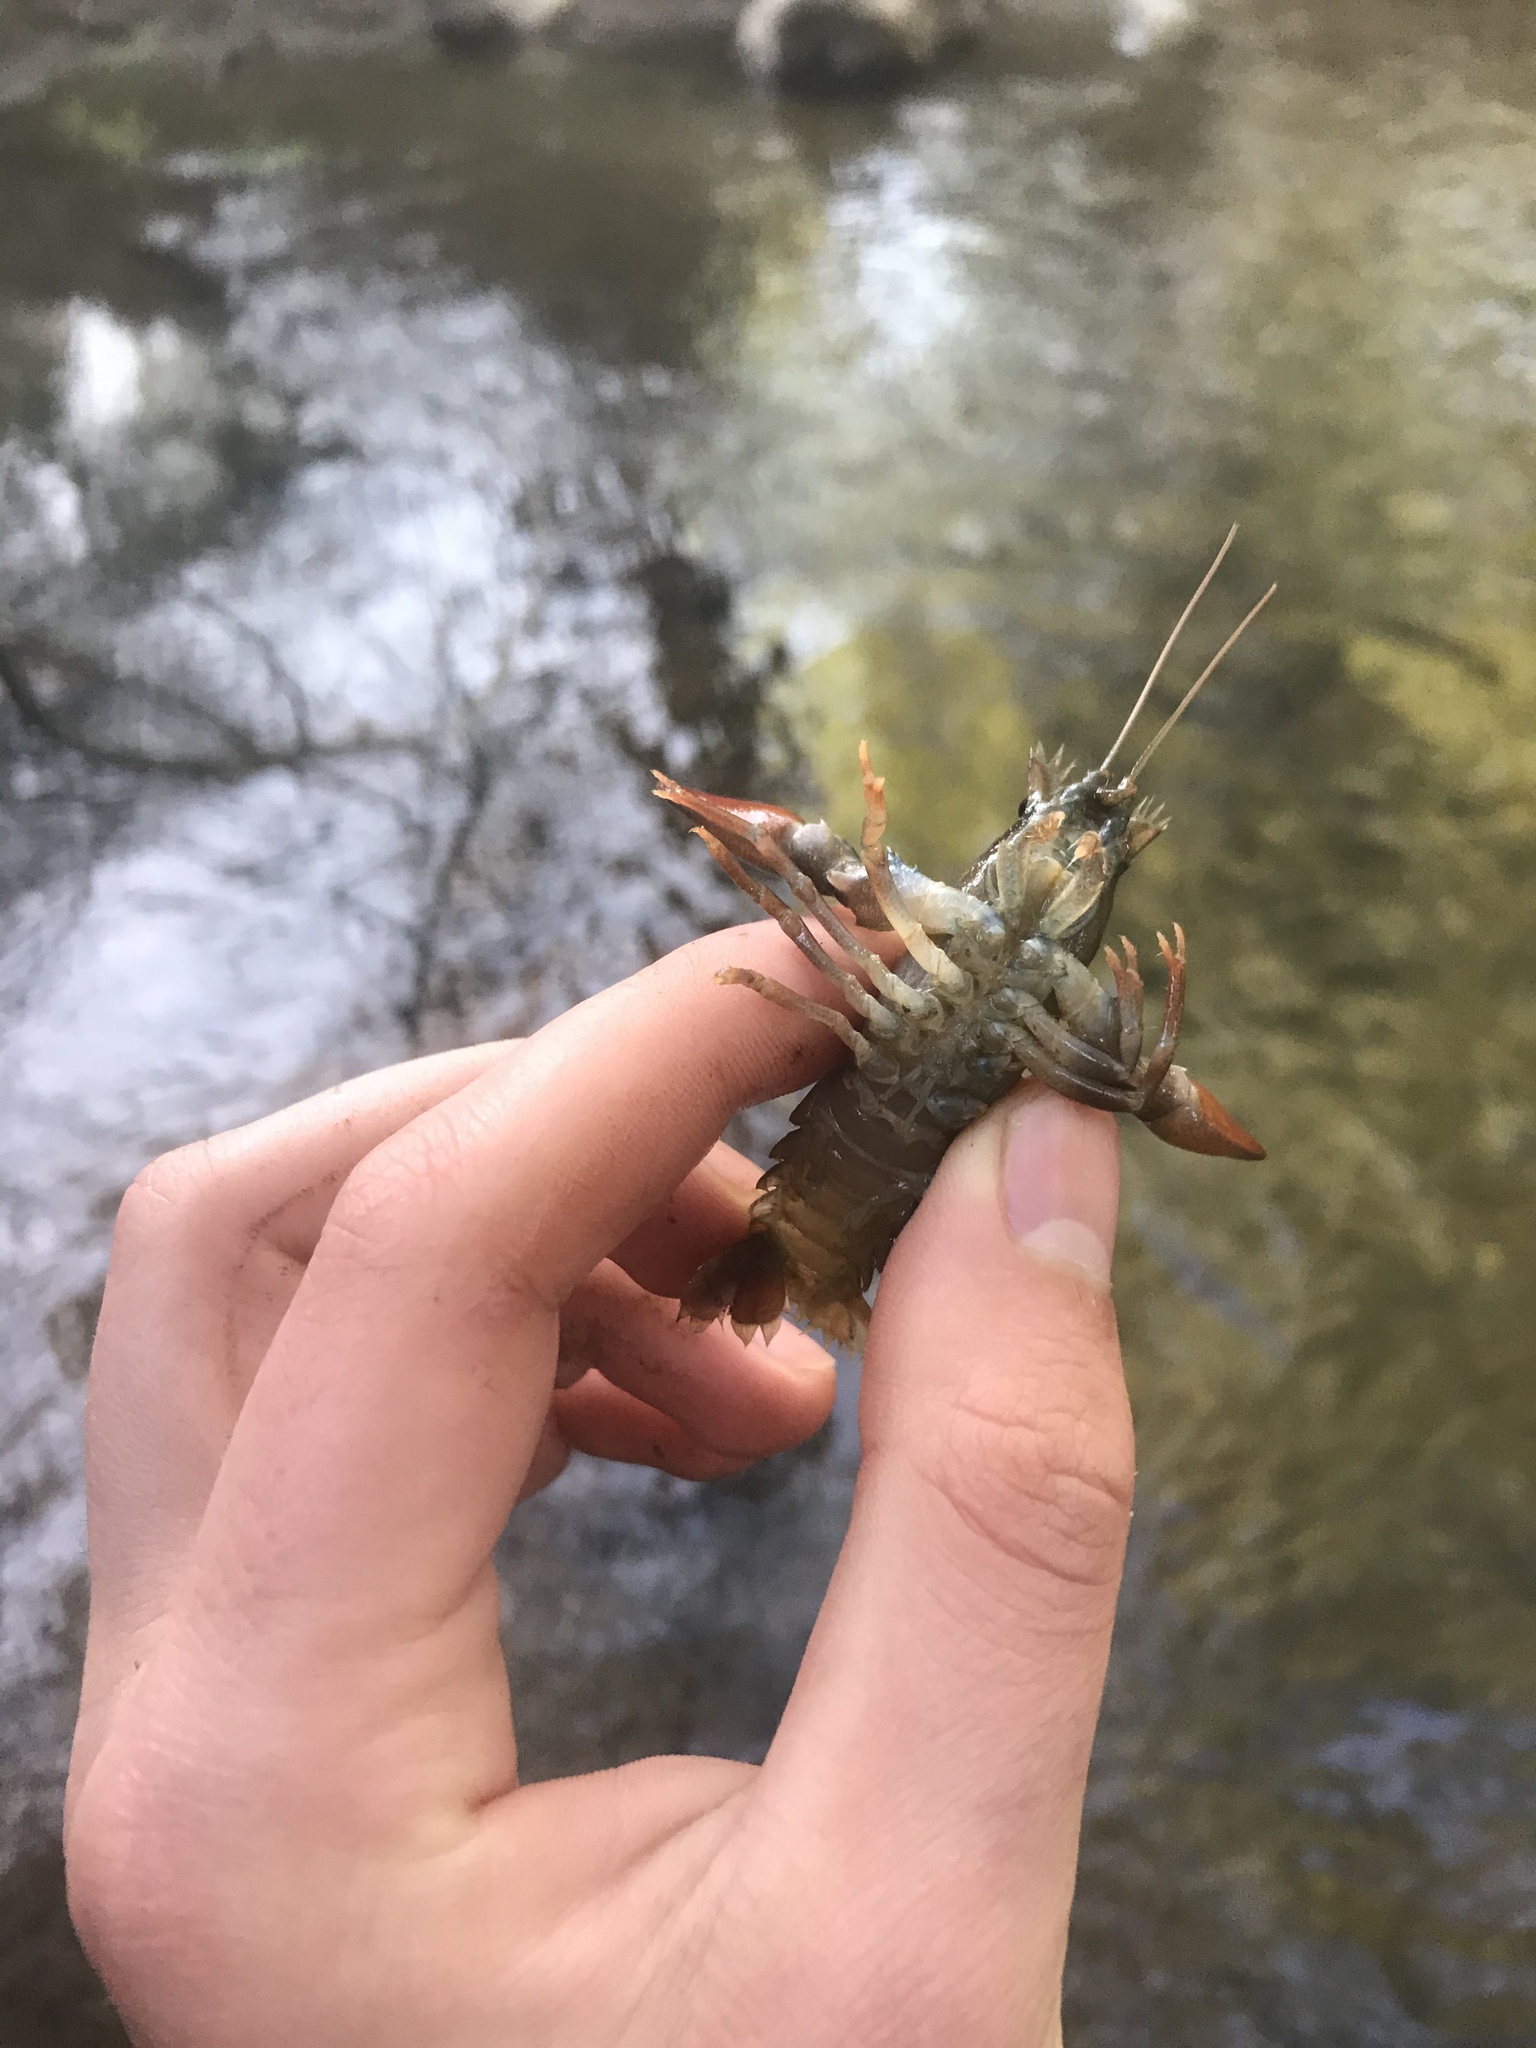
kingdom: Animalia
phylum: Arthropoda
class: Malacostraca
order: Decapoda
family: Astacidae
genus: Pacifastacus
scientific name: Pacifastacus leniusculus
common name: Signal crayfish
